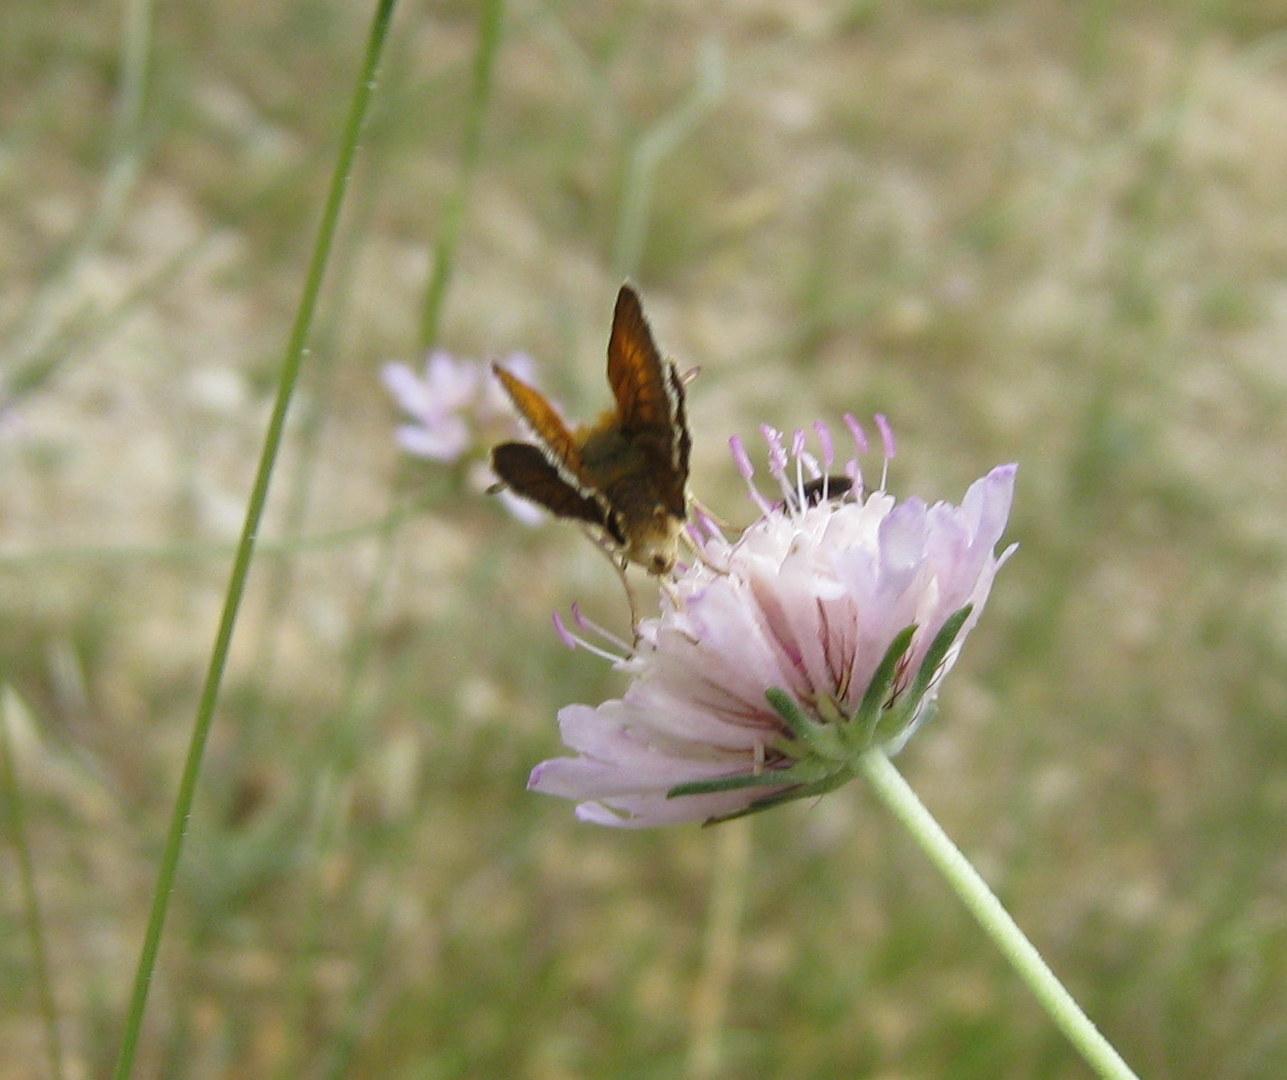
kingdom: Animalia
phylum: Arthropoda
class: Insecta
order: Lepidoptera
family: Hesperiidae
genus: Thymelicus
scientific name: Thymelicus acteon
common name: Lulworth skipper
